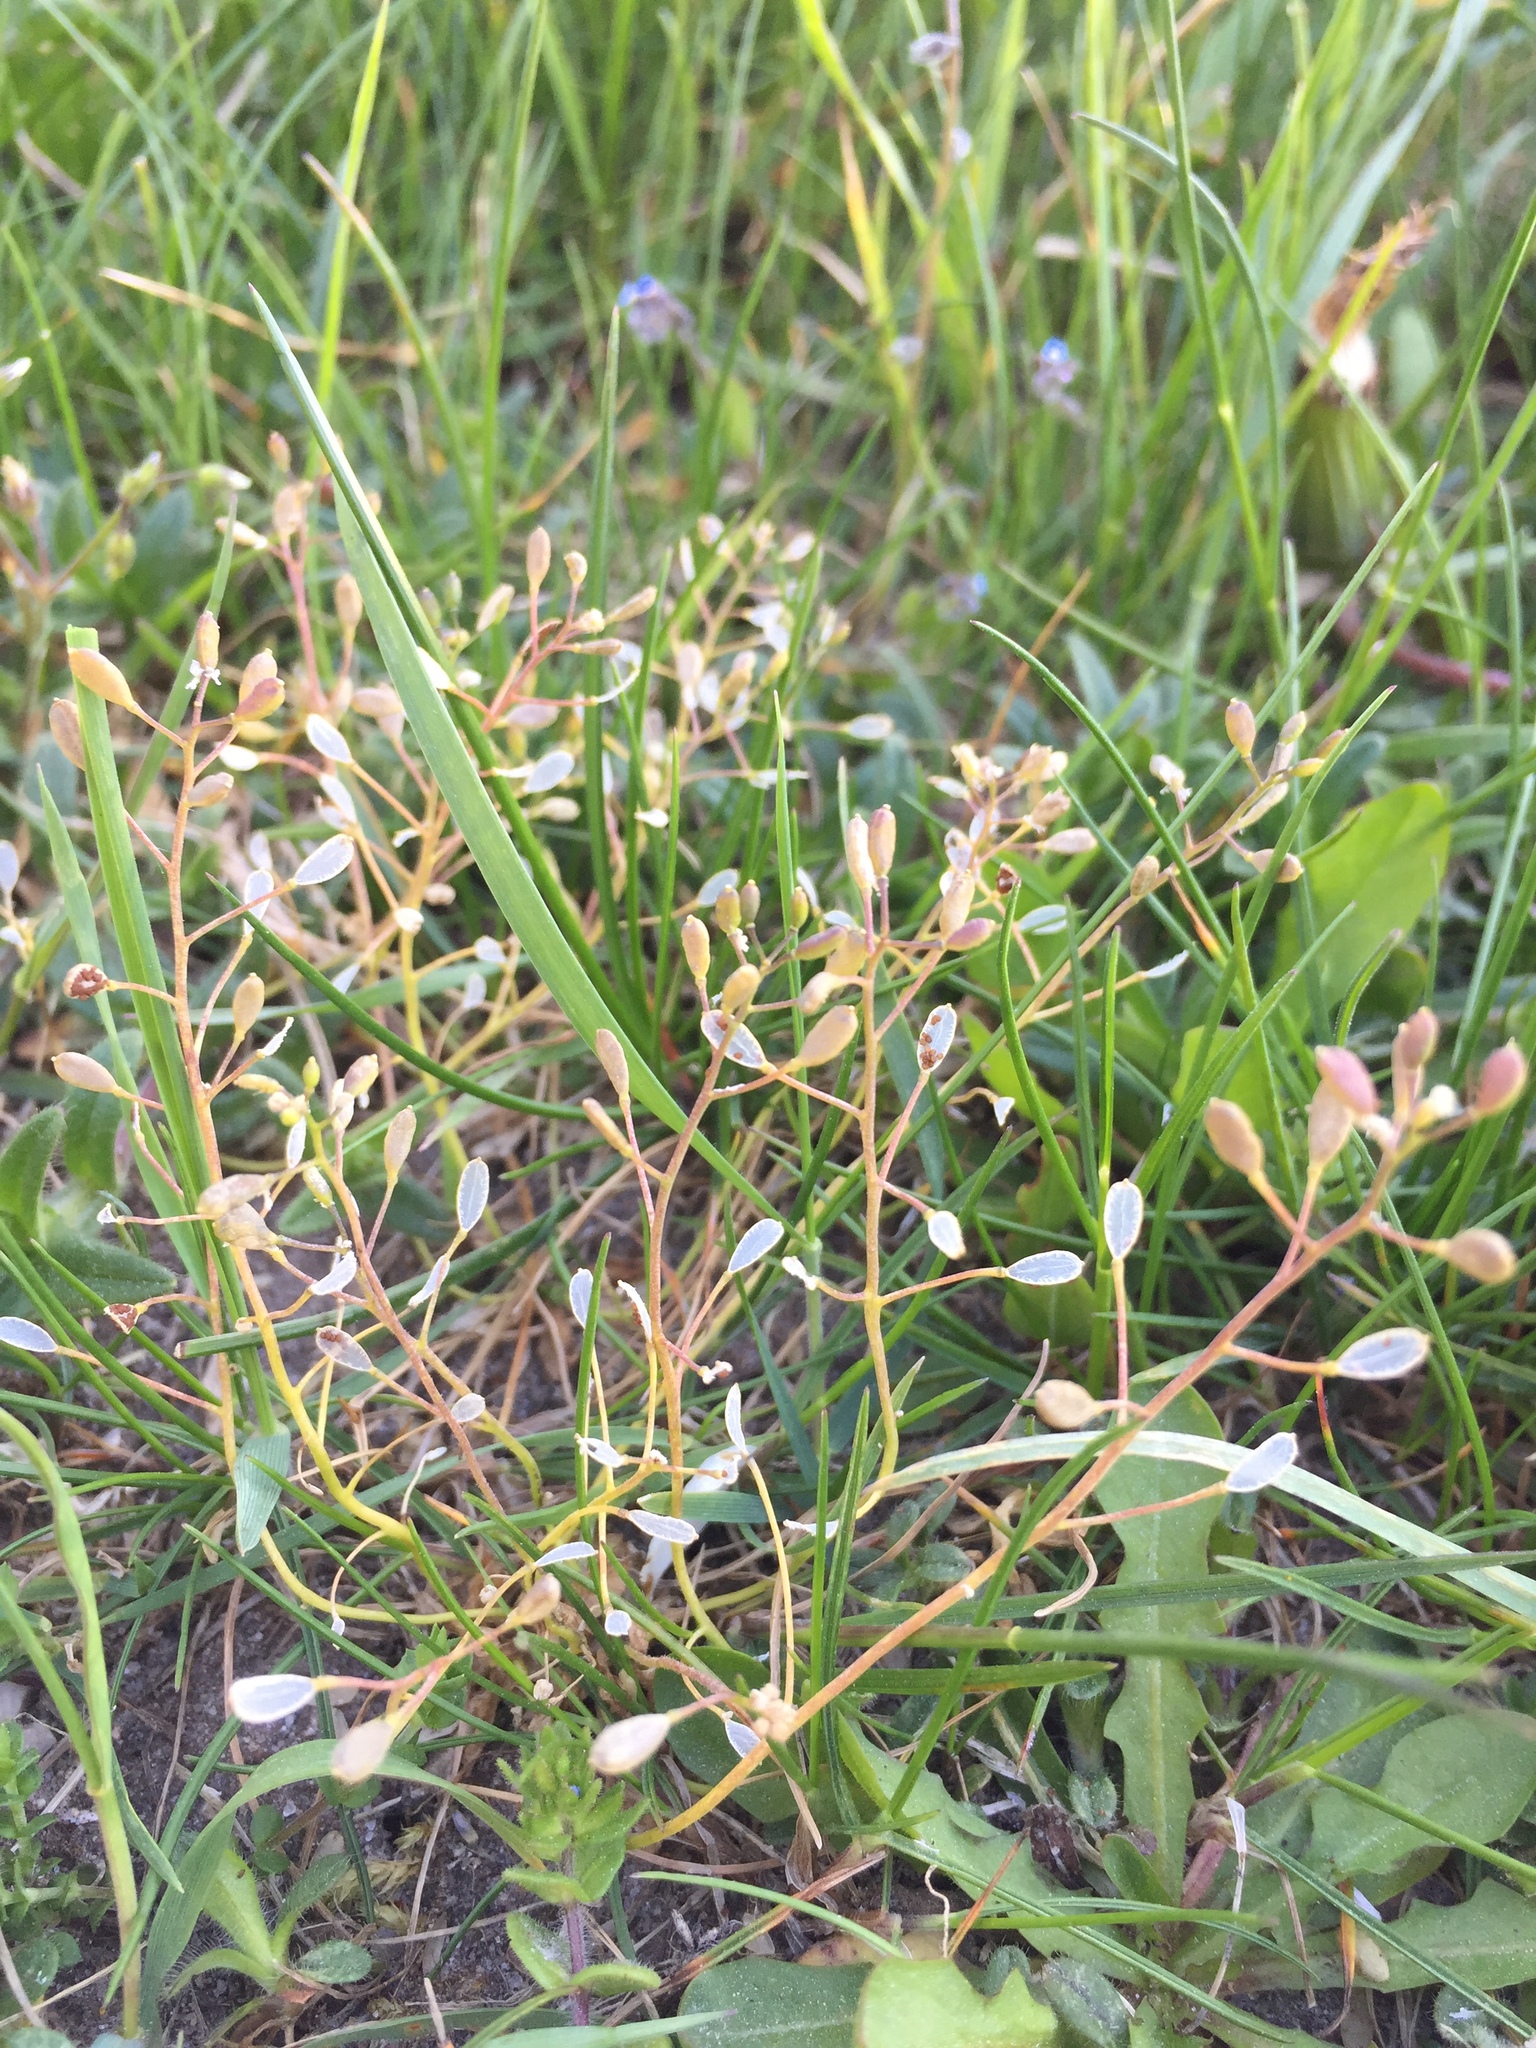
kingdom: Plantae
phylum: Tracheophyta
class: Magnoliopsida
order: Brassicales
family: Brassicaceae
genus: Draba
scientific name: Draba verna
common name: Spring draba
